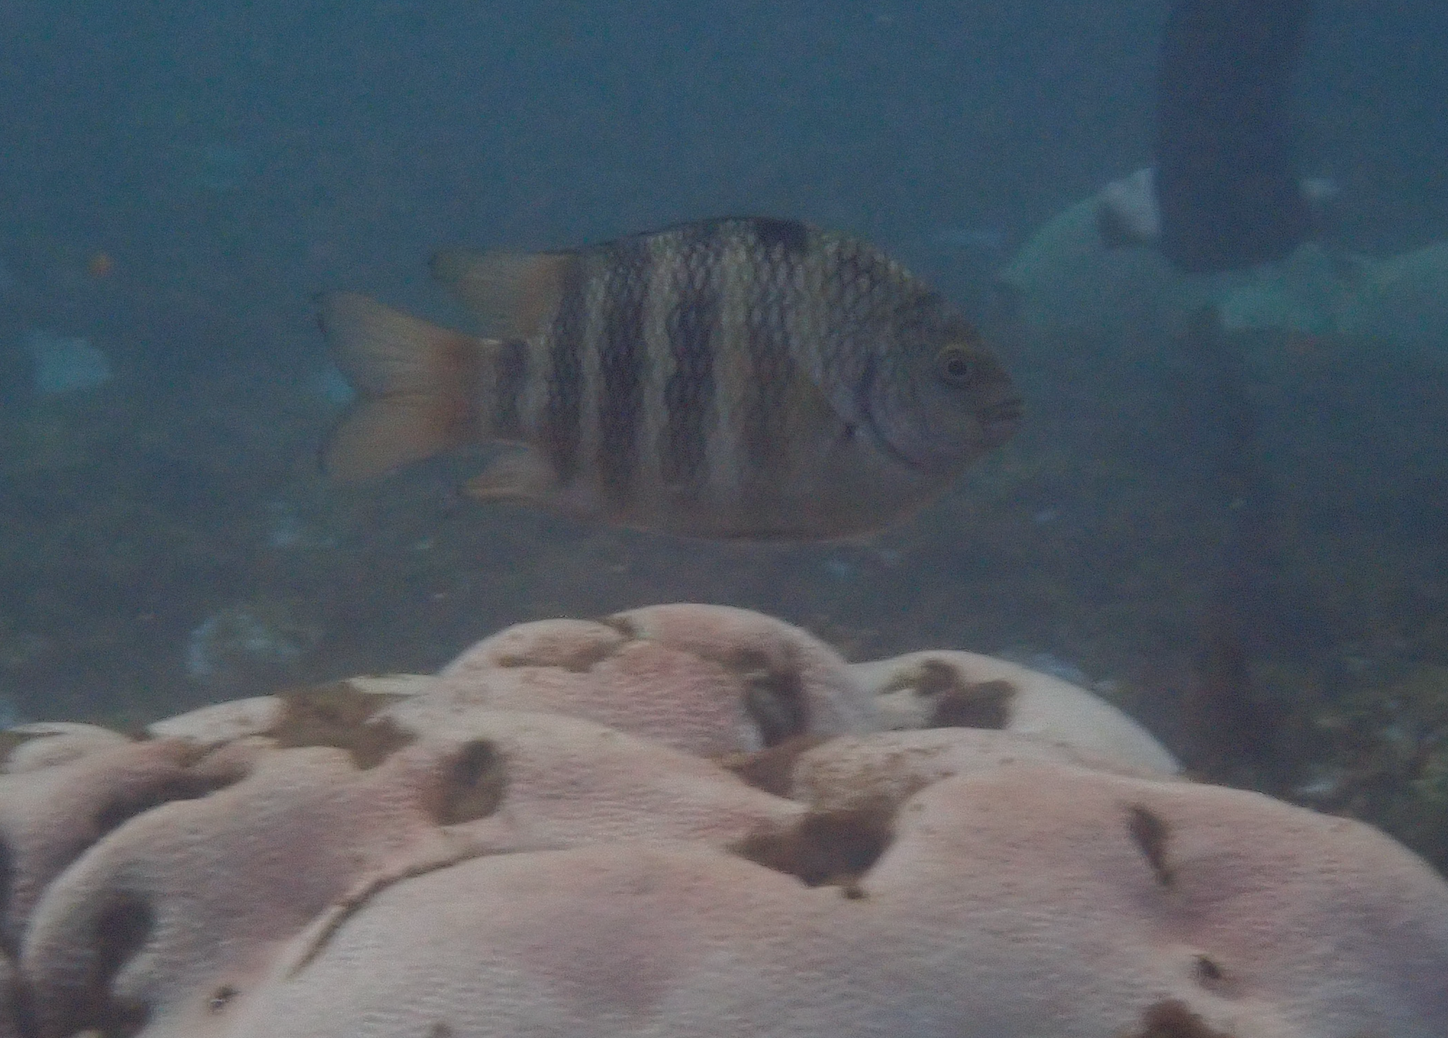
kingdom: Animalia
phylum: Chordata
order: Perciformes
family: Pomacentridae
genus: Abudefduf
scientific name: Abudefduf septemfasciatus
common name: Banded sergeant
